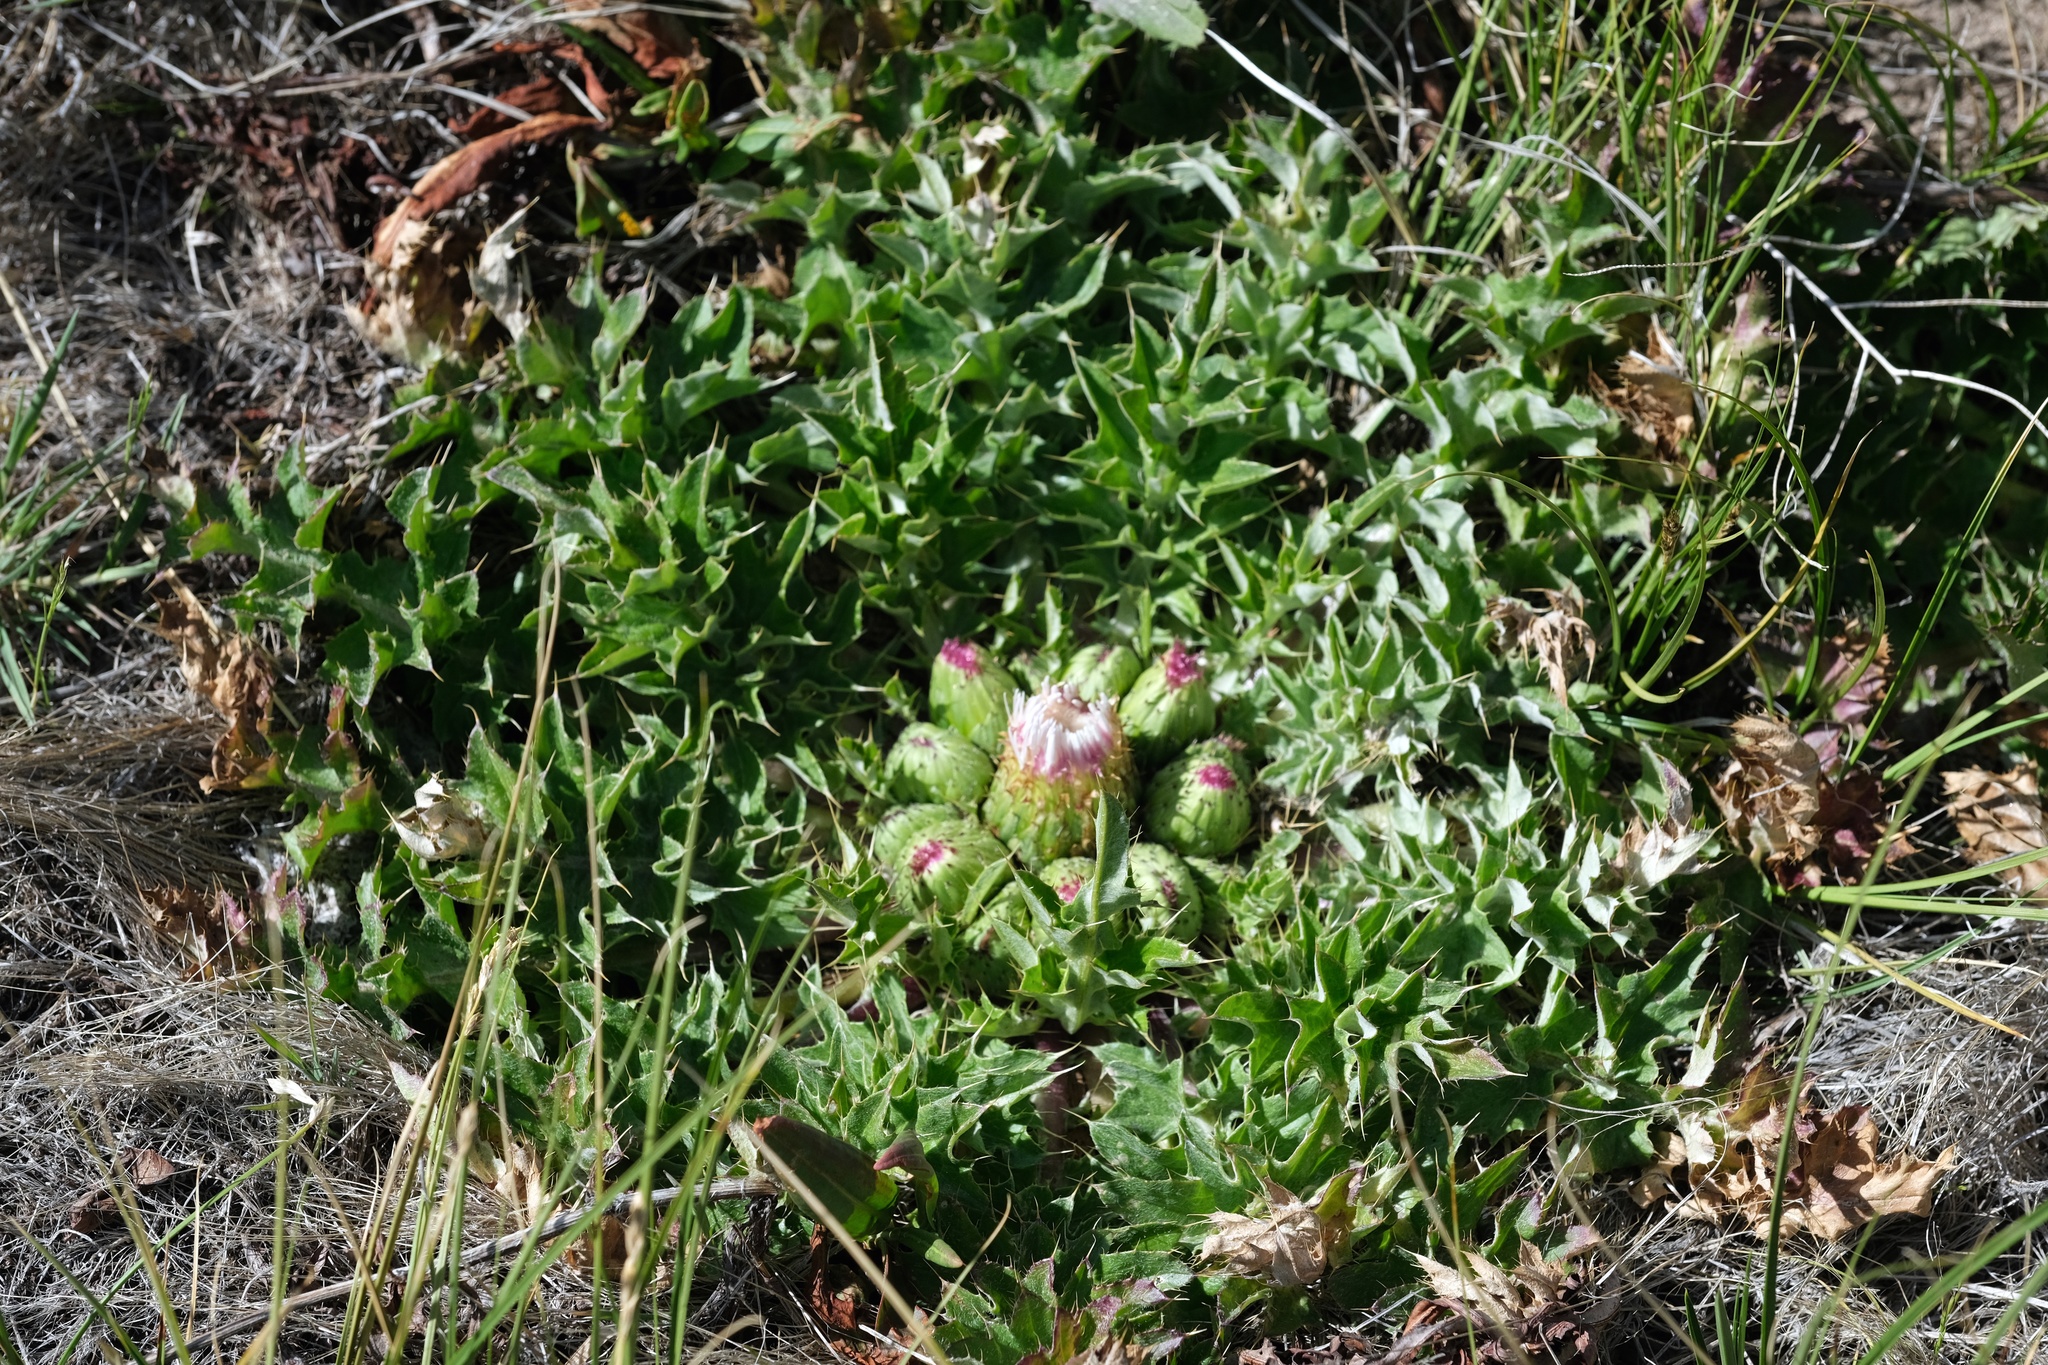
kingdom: Plantae
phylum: Tracheophyta
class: Magnoliopsida
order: Asterales
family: Asteraceae
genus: Cirsium
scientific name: Cirsium scariosum
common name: Meadow thistle
